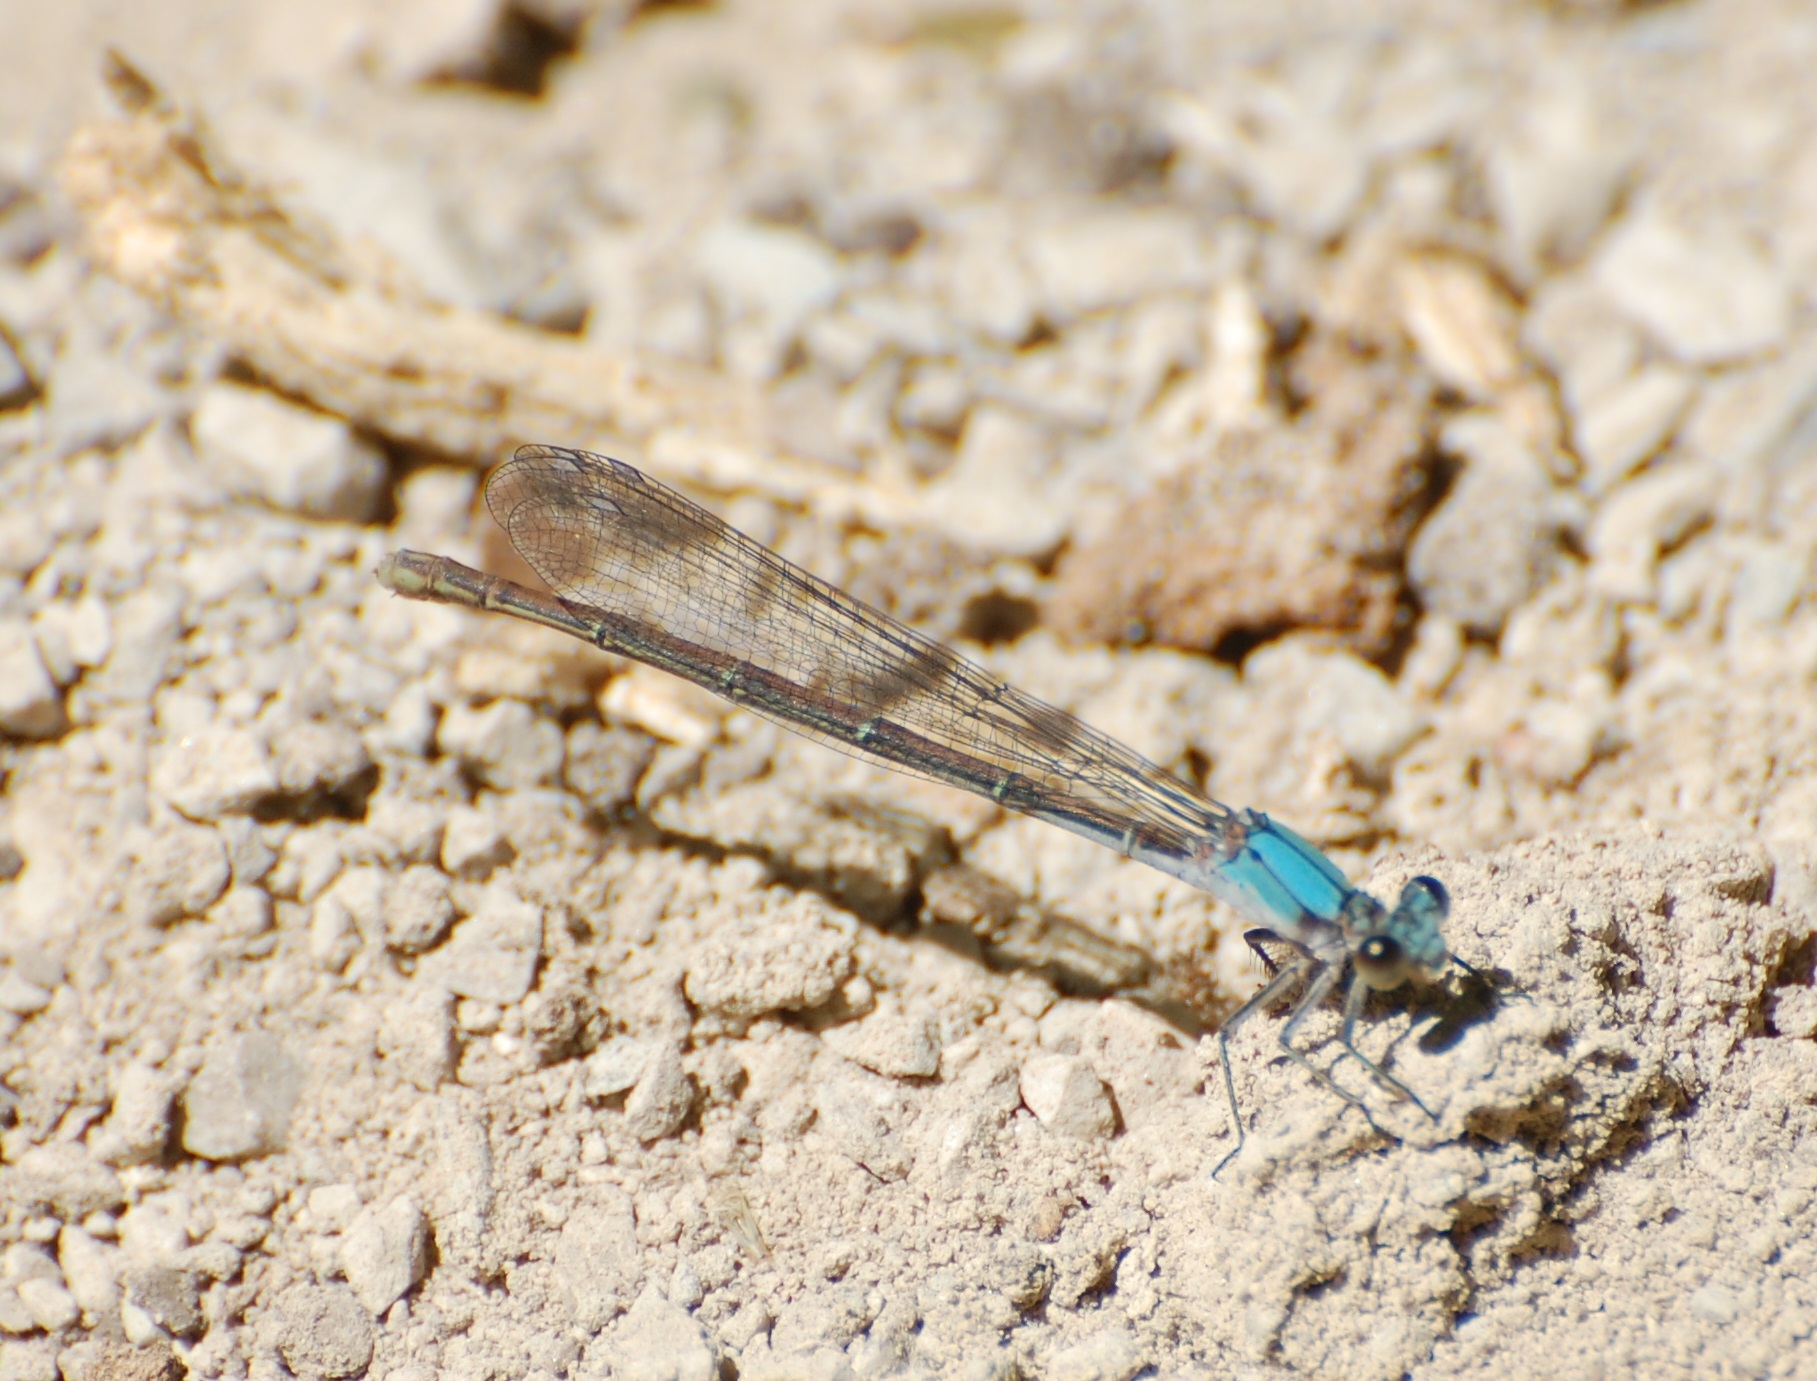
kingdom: Animalia
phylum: Arthropoda
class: Insecta
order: Odonata
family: Coenagrionidae
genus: Argia
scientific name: Argia moesta
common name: Powdered dancer
